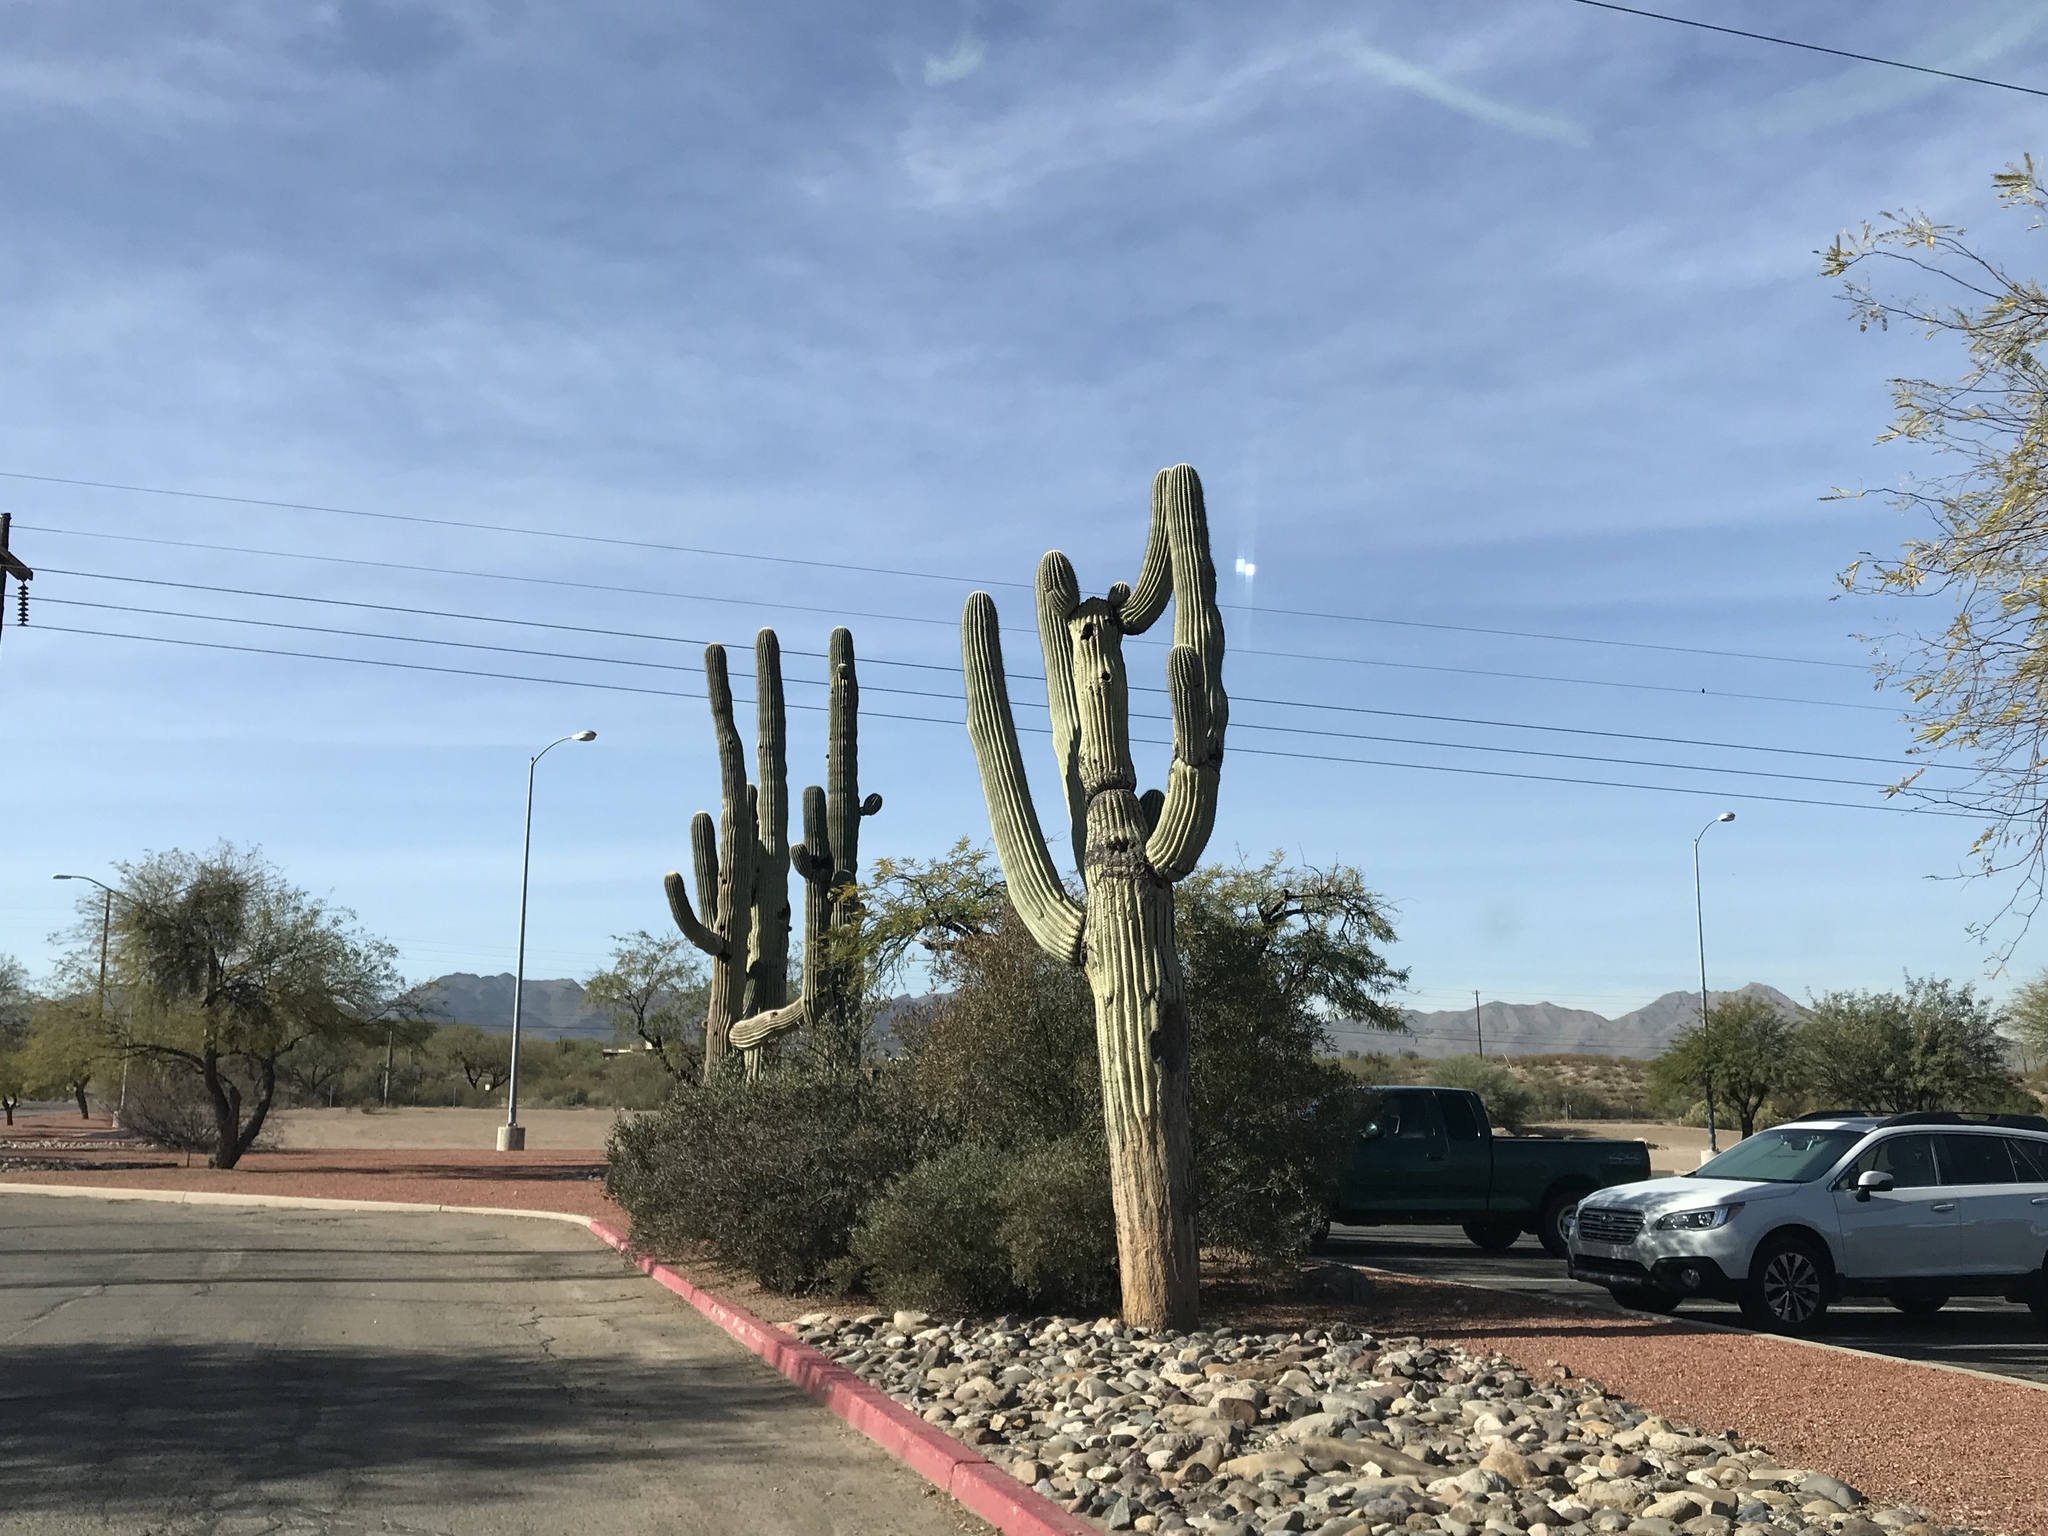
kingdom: Plantae
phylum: Tracheophyta
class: Magnoliopsida
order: Caryophyllales
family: Cactaceae
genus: Carnegiea
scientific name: Carnegiea gigantea
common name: Saguaro
